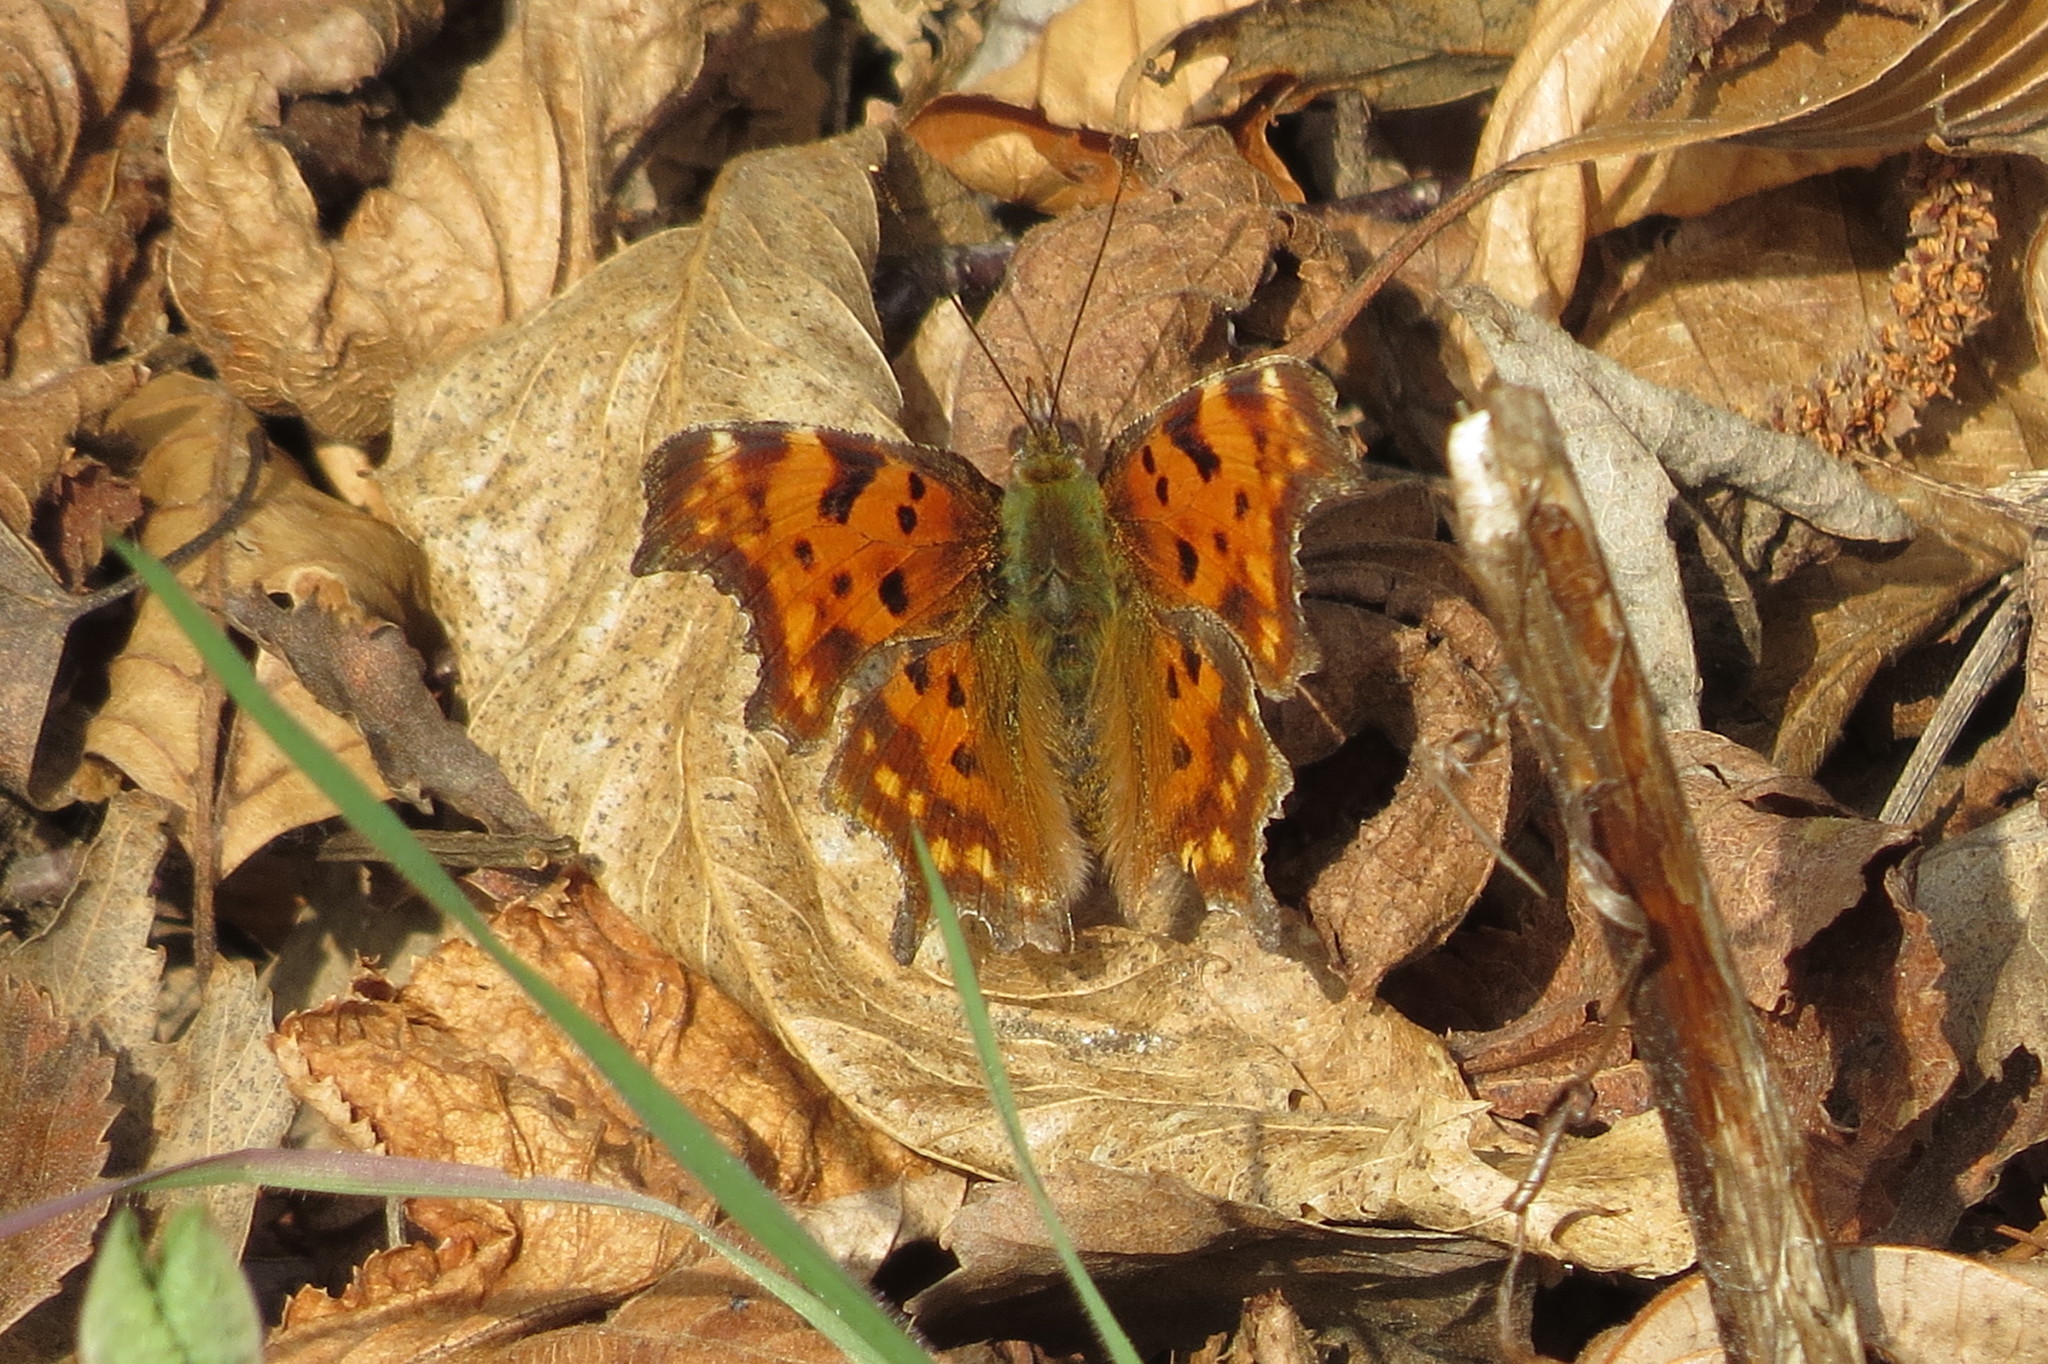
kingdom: Animalia
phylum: Arthropoda
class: Insecta
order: Lepidoptera
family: Nymphalidae
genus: Polygonia
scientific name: Polygonia c-album
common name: Comma
